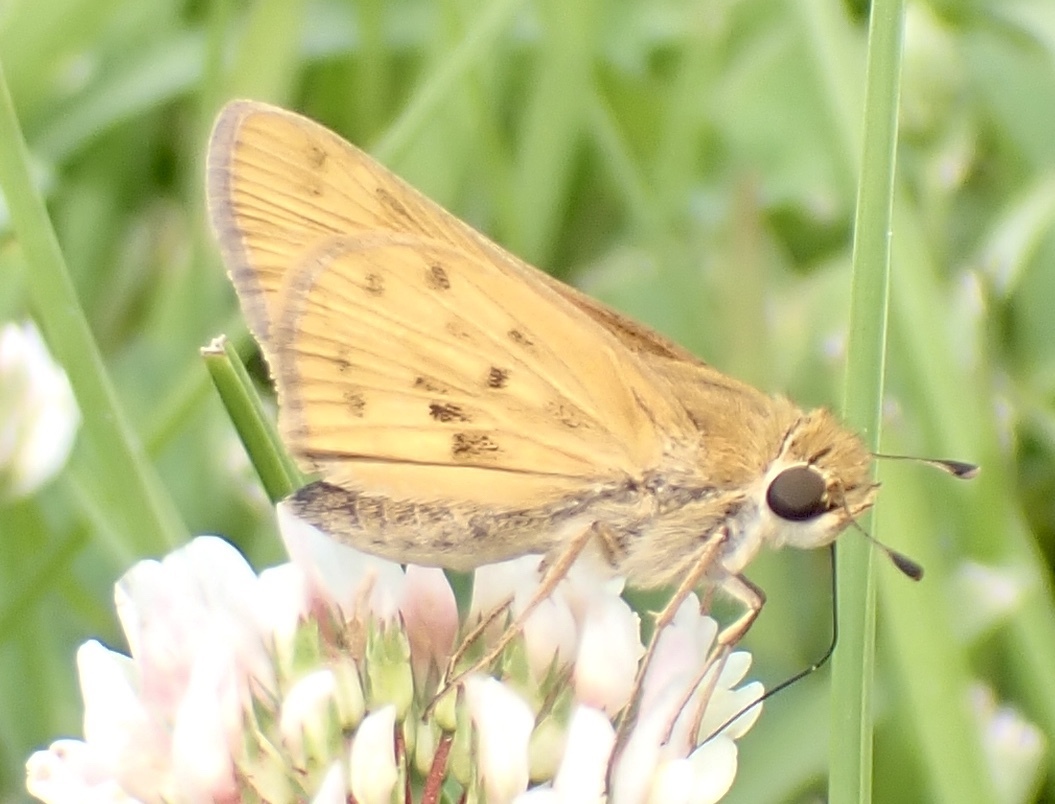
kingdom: Animalia
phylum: Arthropoda
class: Insecta
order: Lepidoptera
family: Hesperiidae
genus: Hylephila
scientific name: Hylephila phyleus
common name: Fiery skipper
